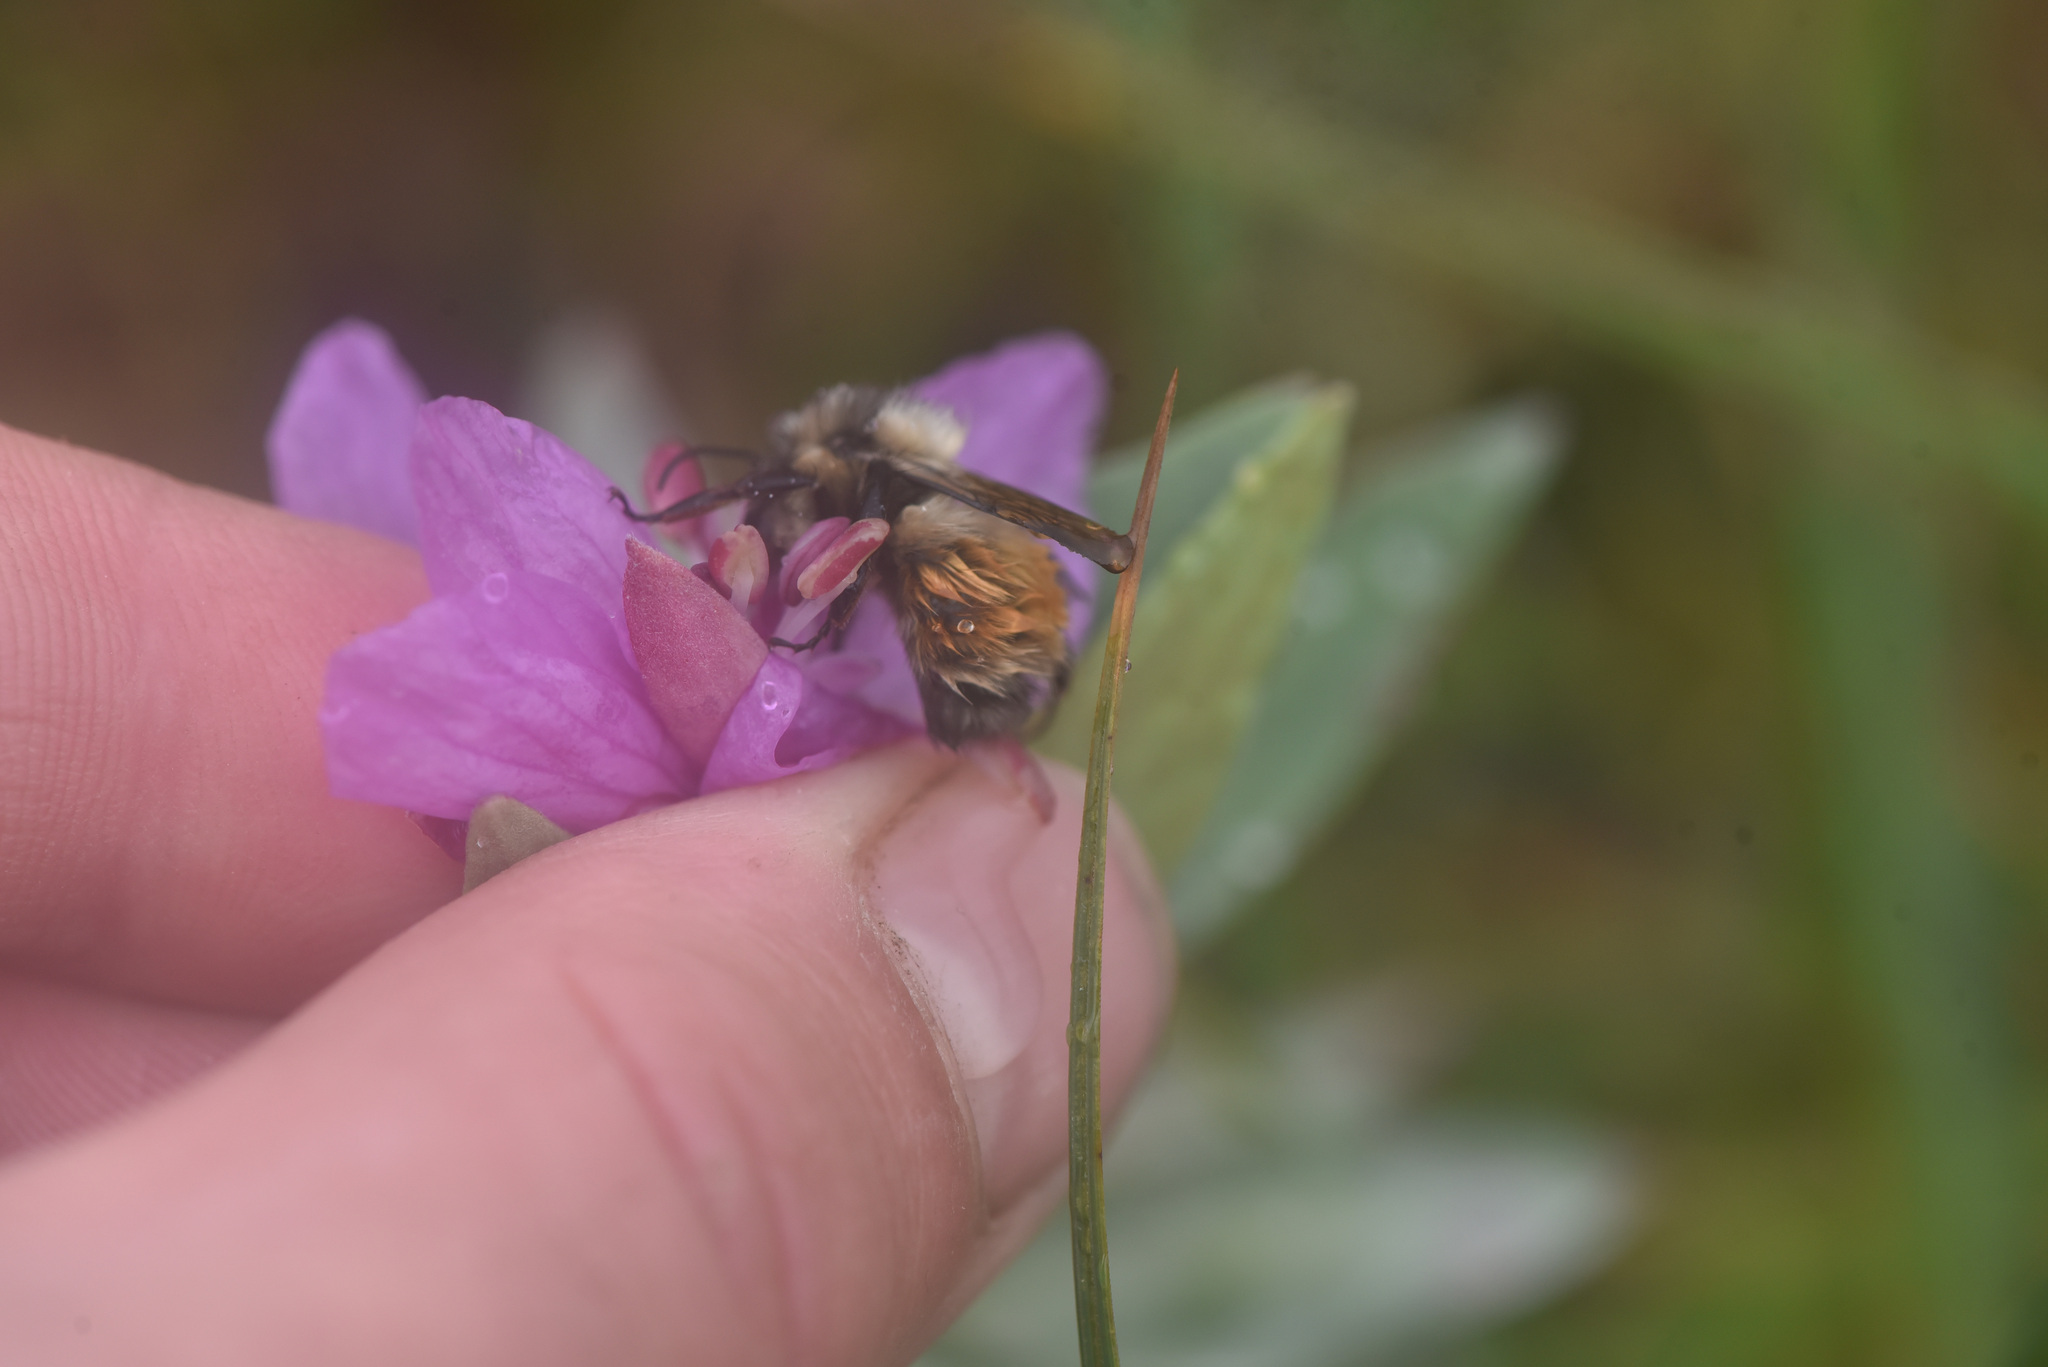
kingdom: Animalia
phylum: Arthropoda
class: Insecta
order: Hymenoptera
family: Apidae
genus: Bombus
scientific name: Bombus sylvicola
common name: Forest bumble bee
